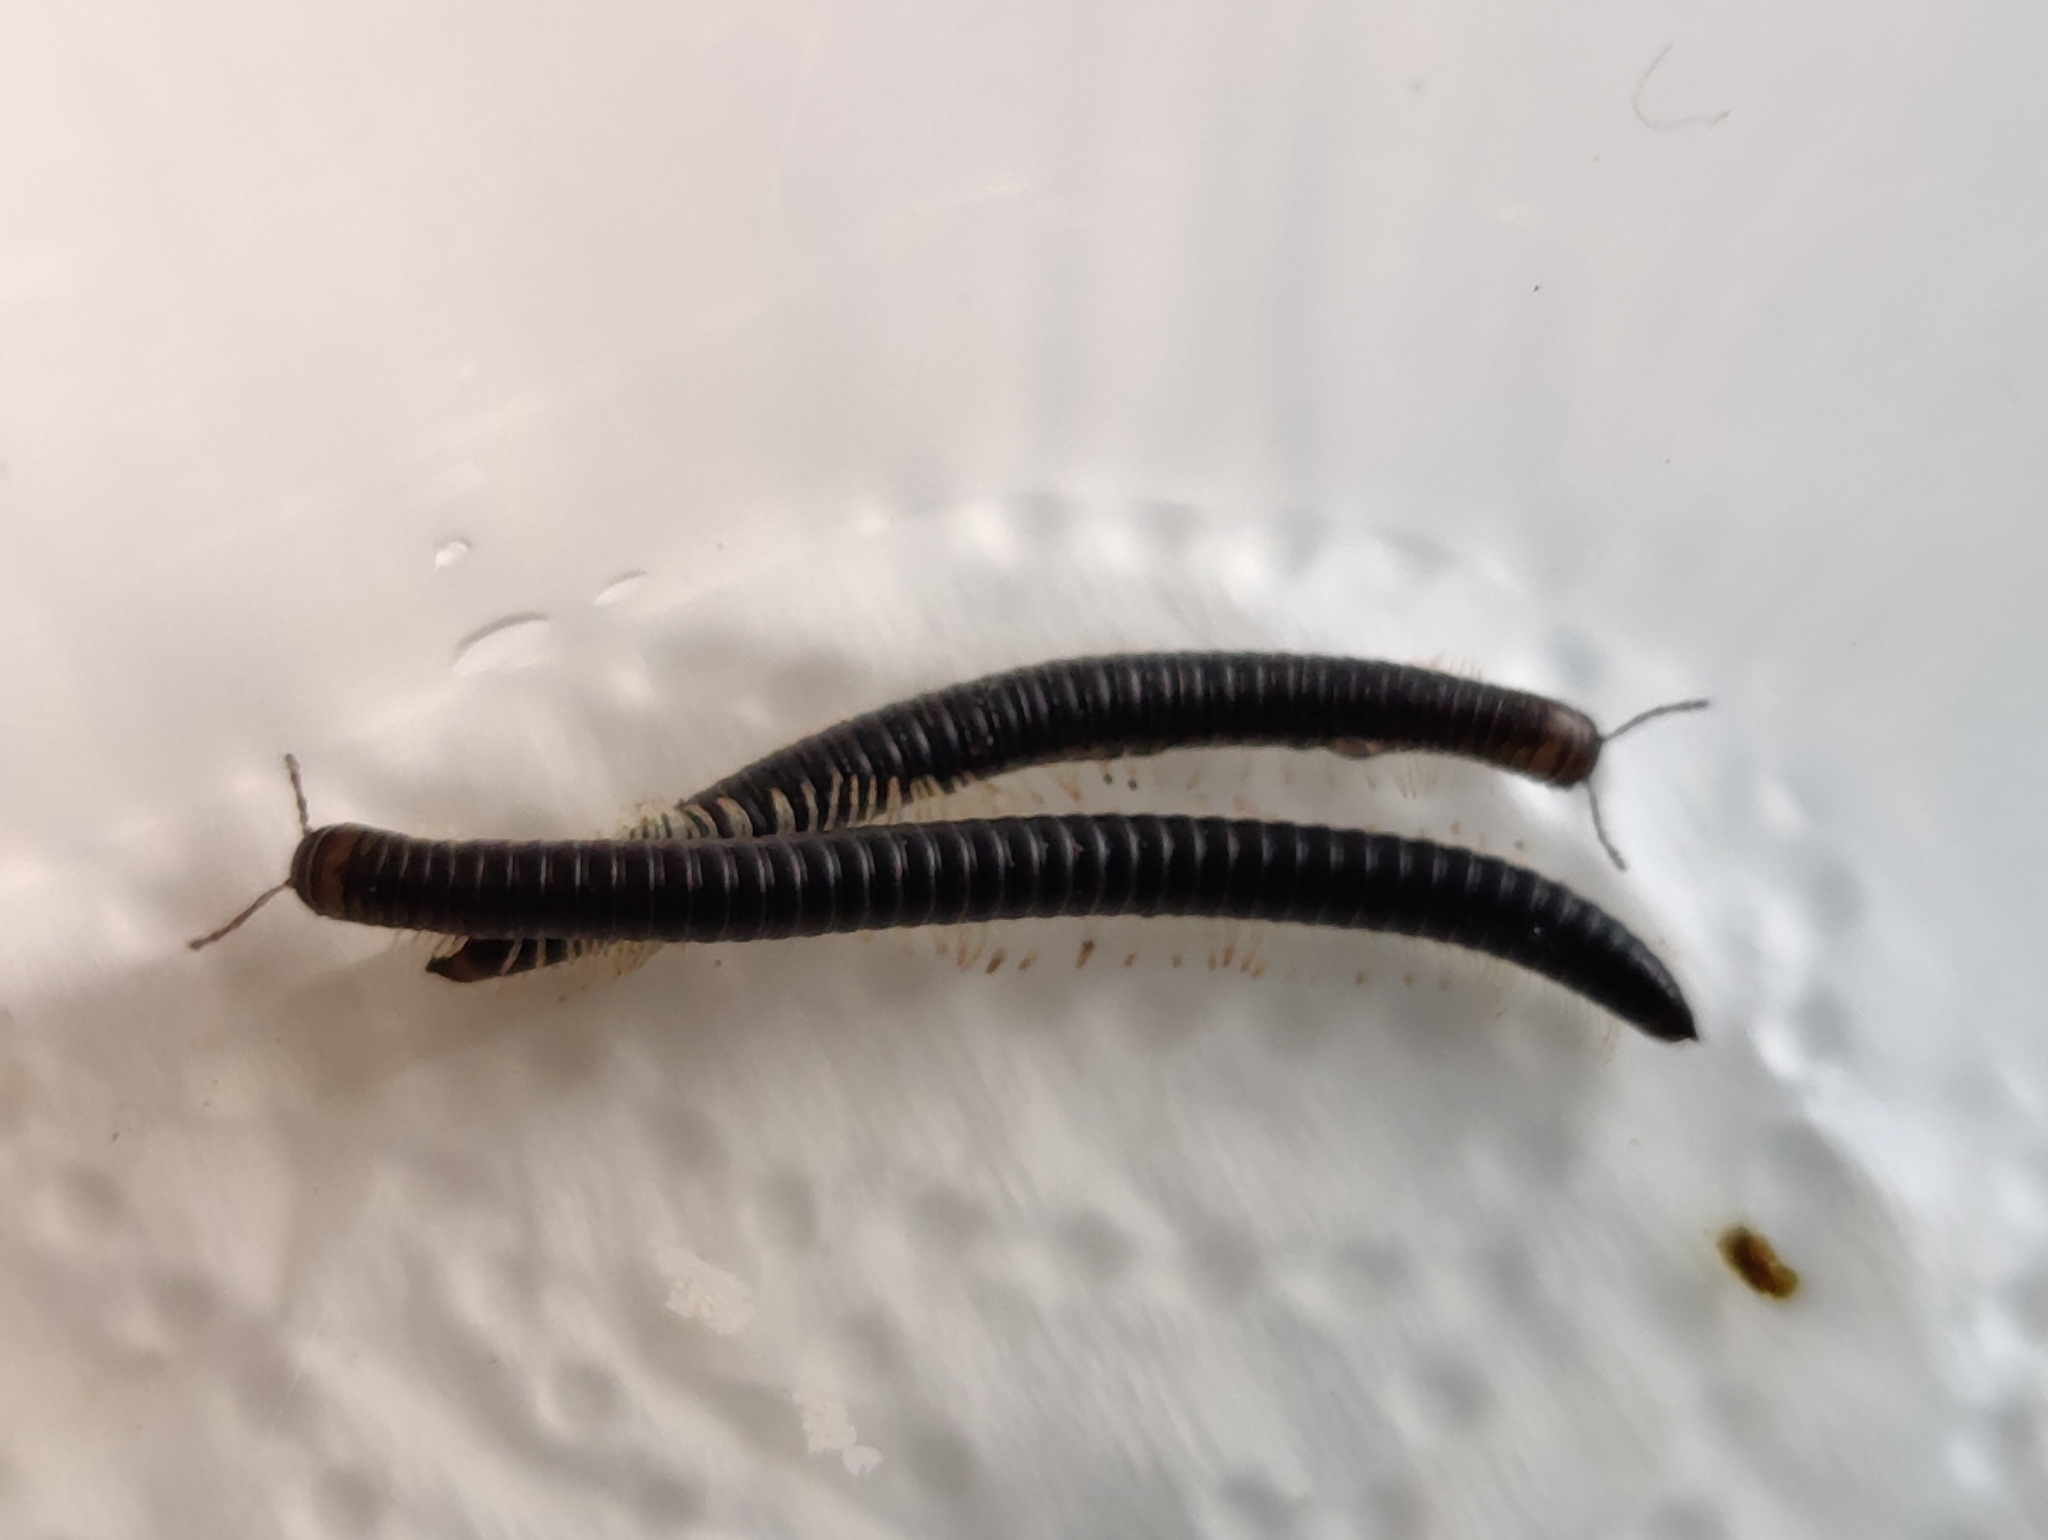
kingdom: Animalia
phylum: Arthropoda
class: Diplopoda
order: Julida
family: Julidae
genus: Tachypodoiulus
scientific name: Tachypodoiulus niger
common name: White-legged snake millipede
